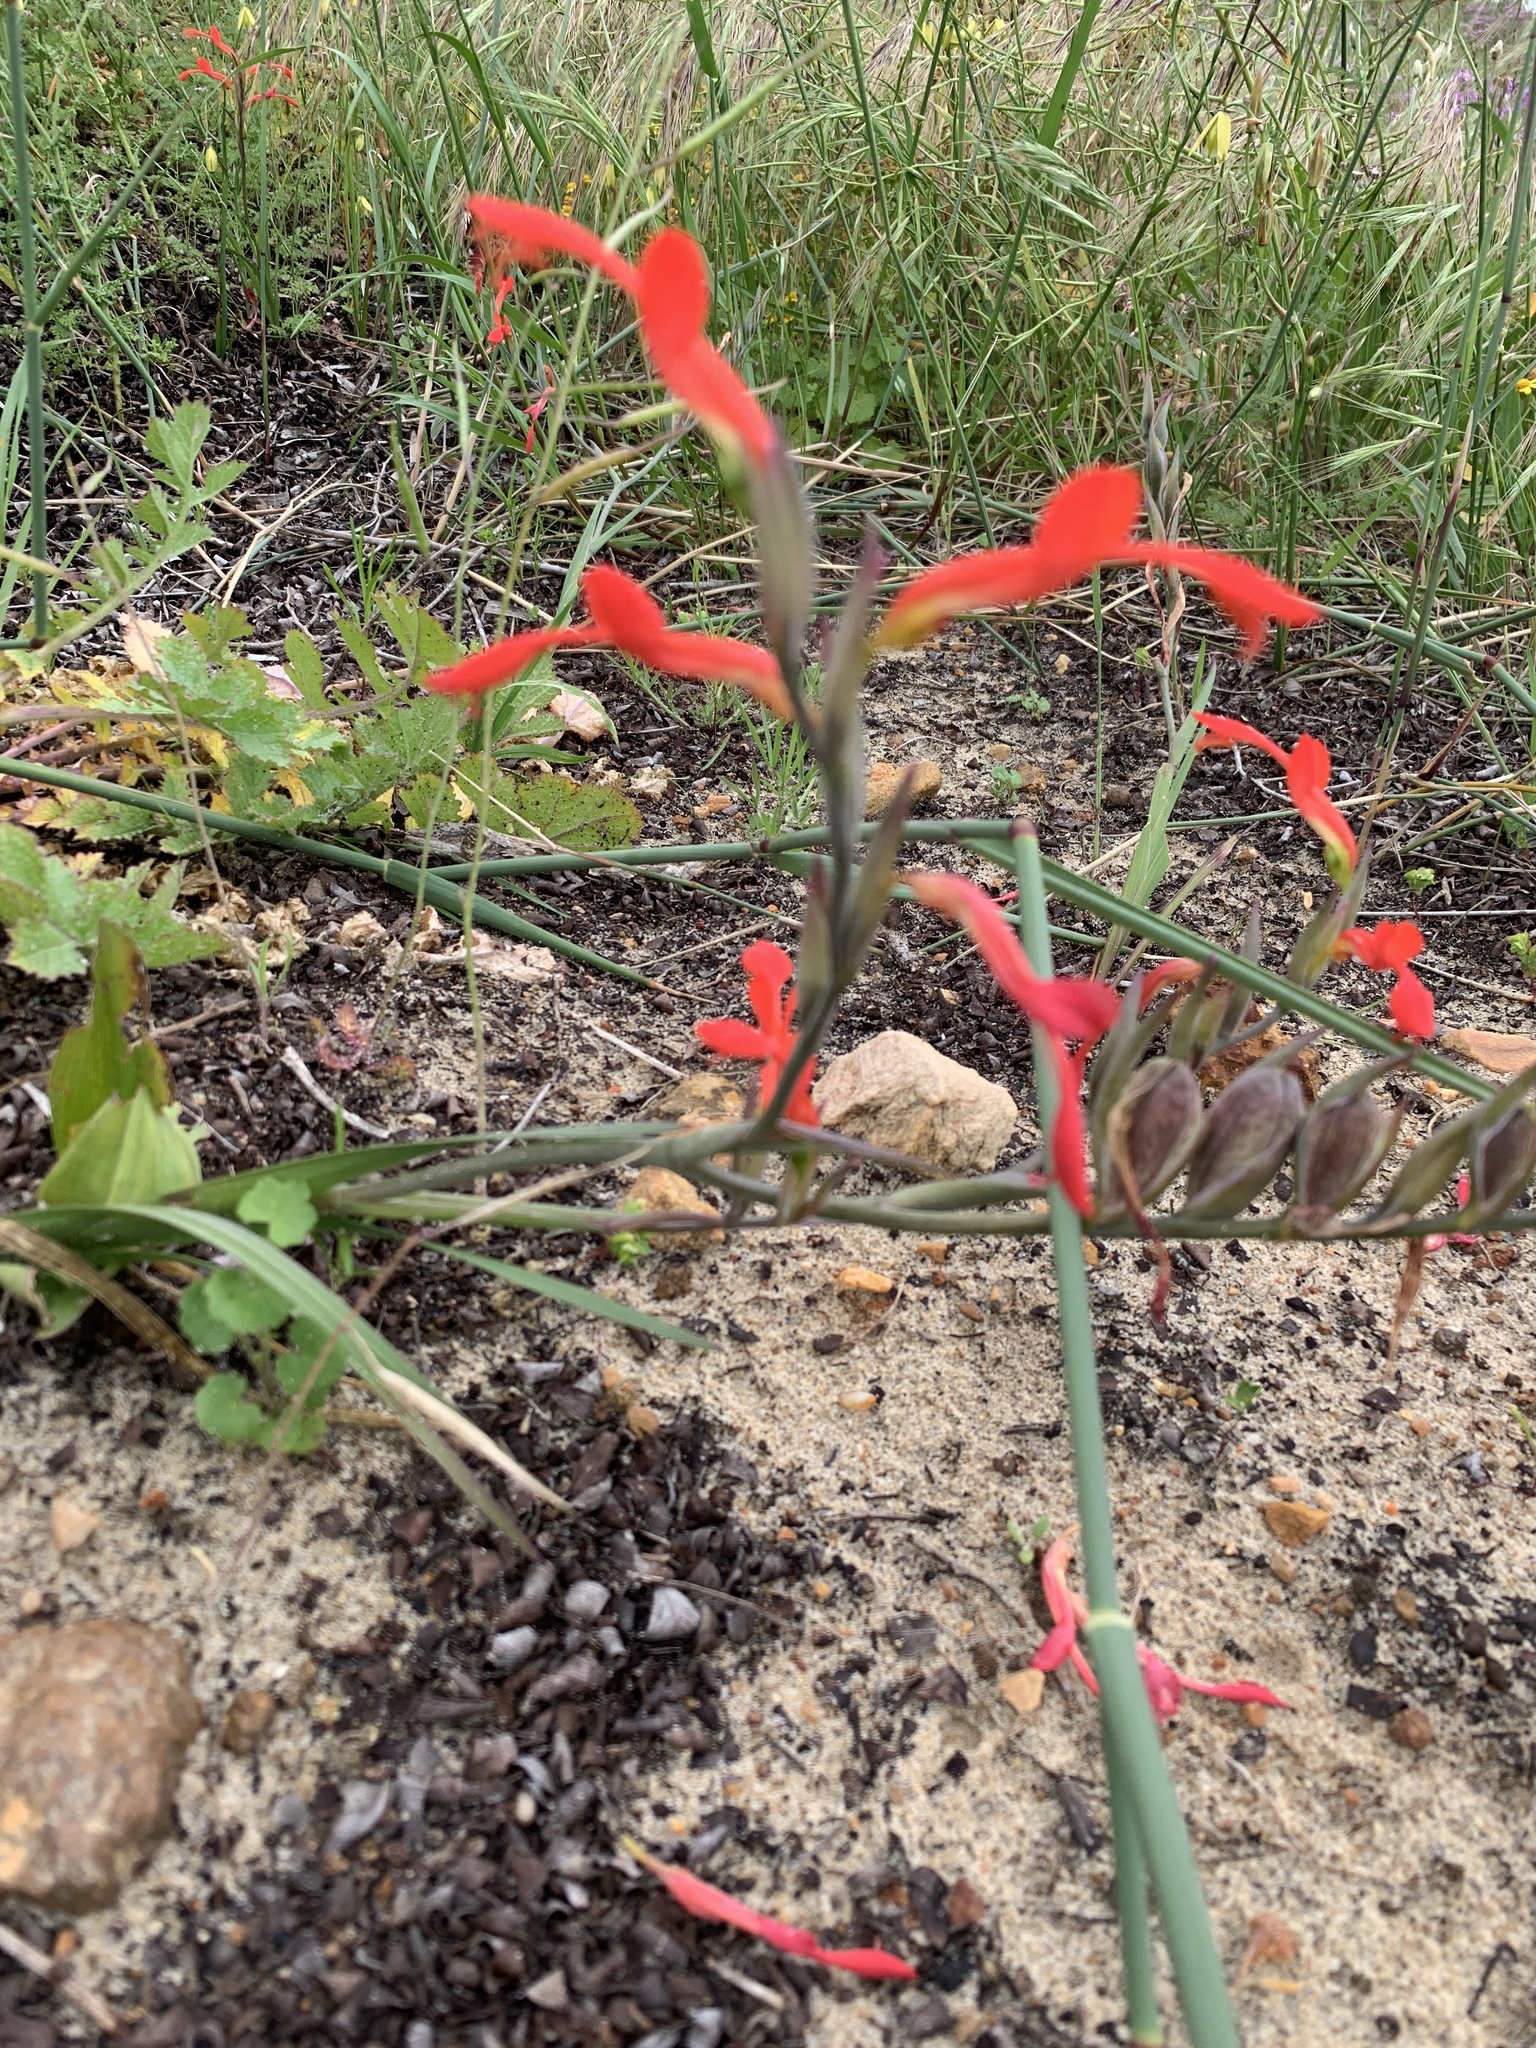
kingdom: Plantae
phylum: Tracheophyta
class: Liliopsida
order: Asparagales
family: Iridaceae
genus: Gladiolus
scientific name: Gladiolus cunonius
